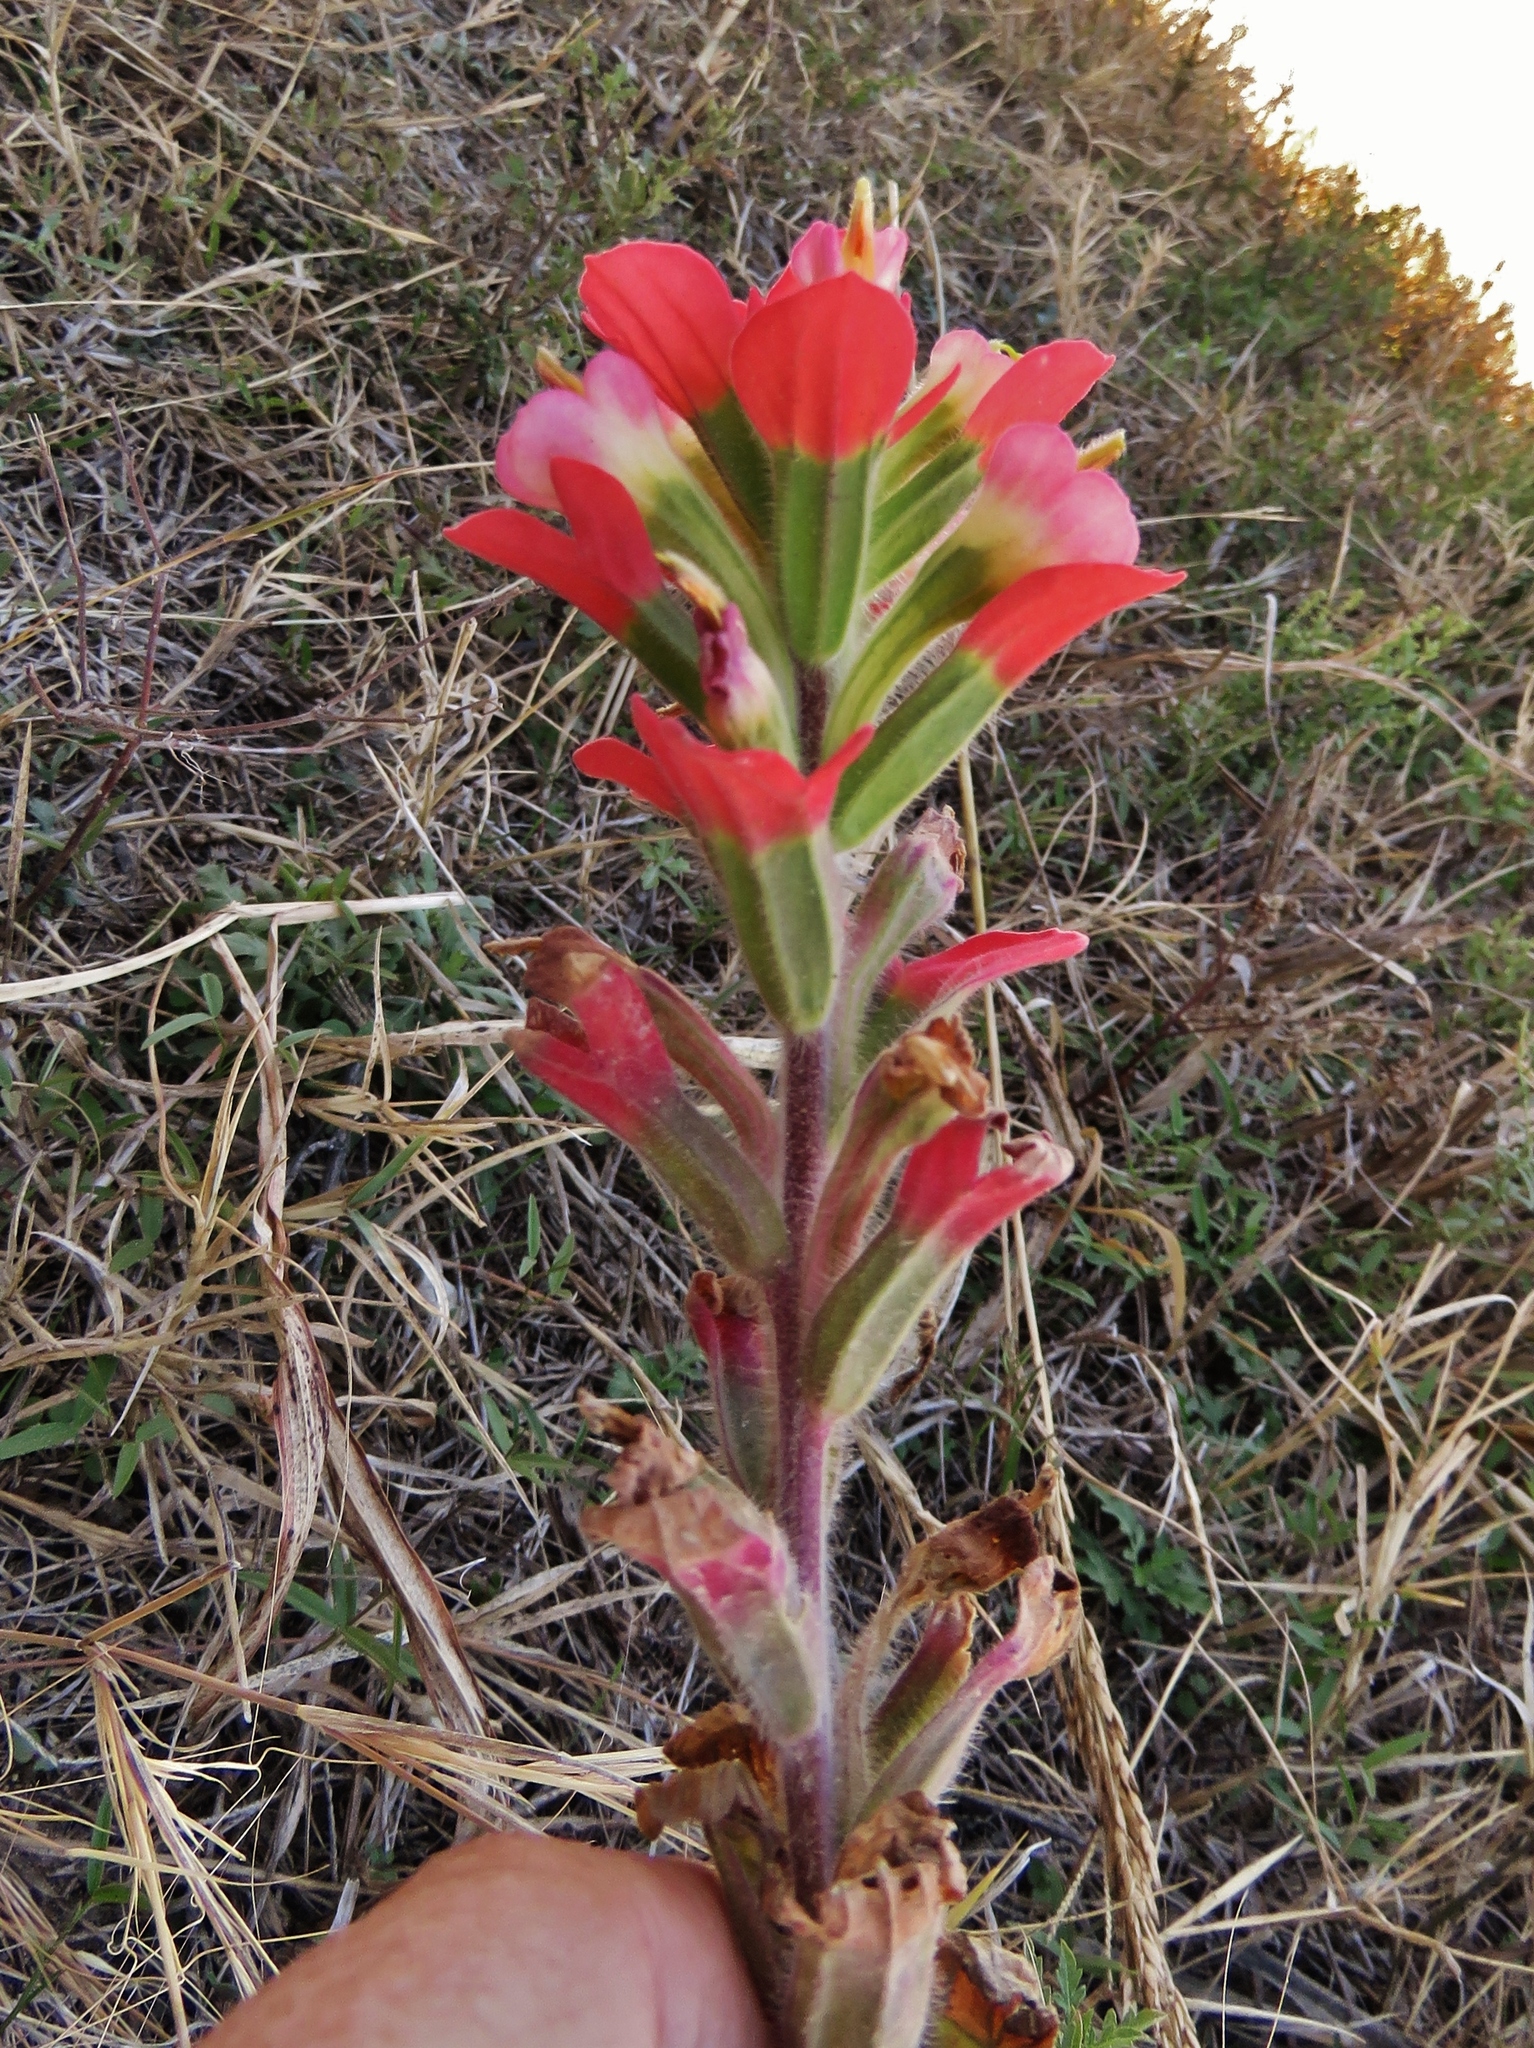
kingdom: Plantae
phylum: Tracheophyta
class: Magnoliopsida
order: Lamiales
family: Orobanchaceae
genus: Castilleja
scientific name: Castilleja indivisa
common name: Texas paintbrush
